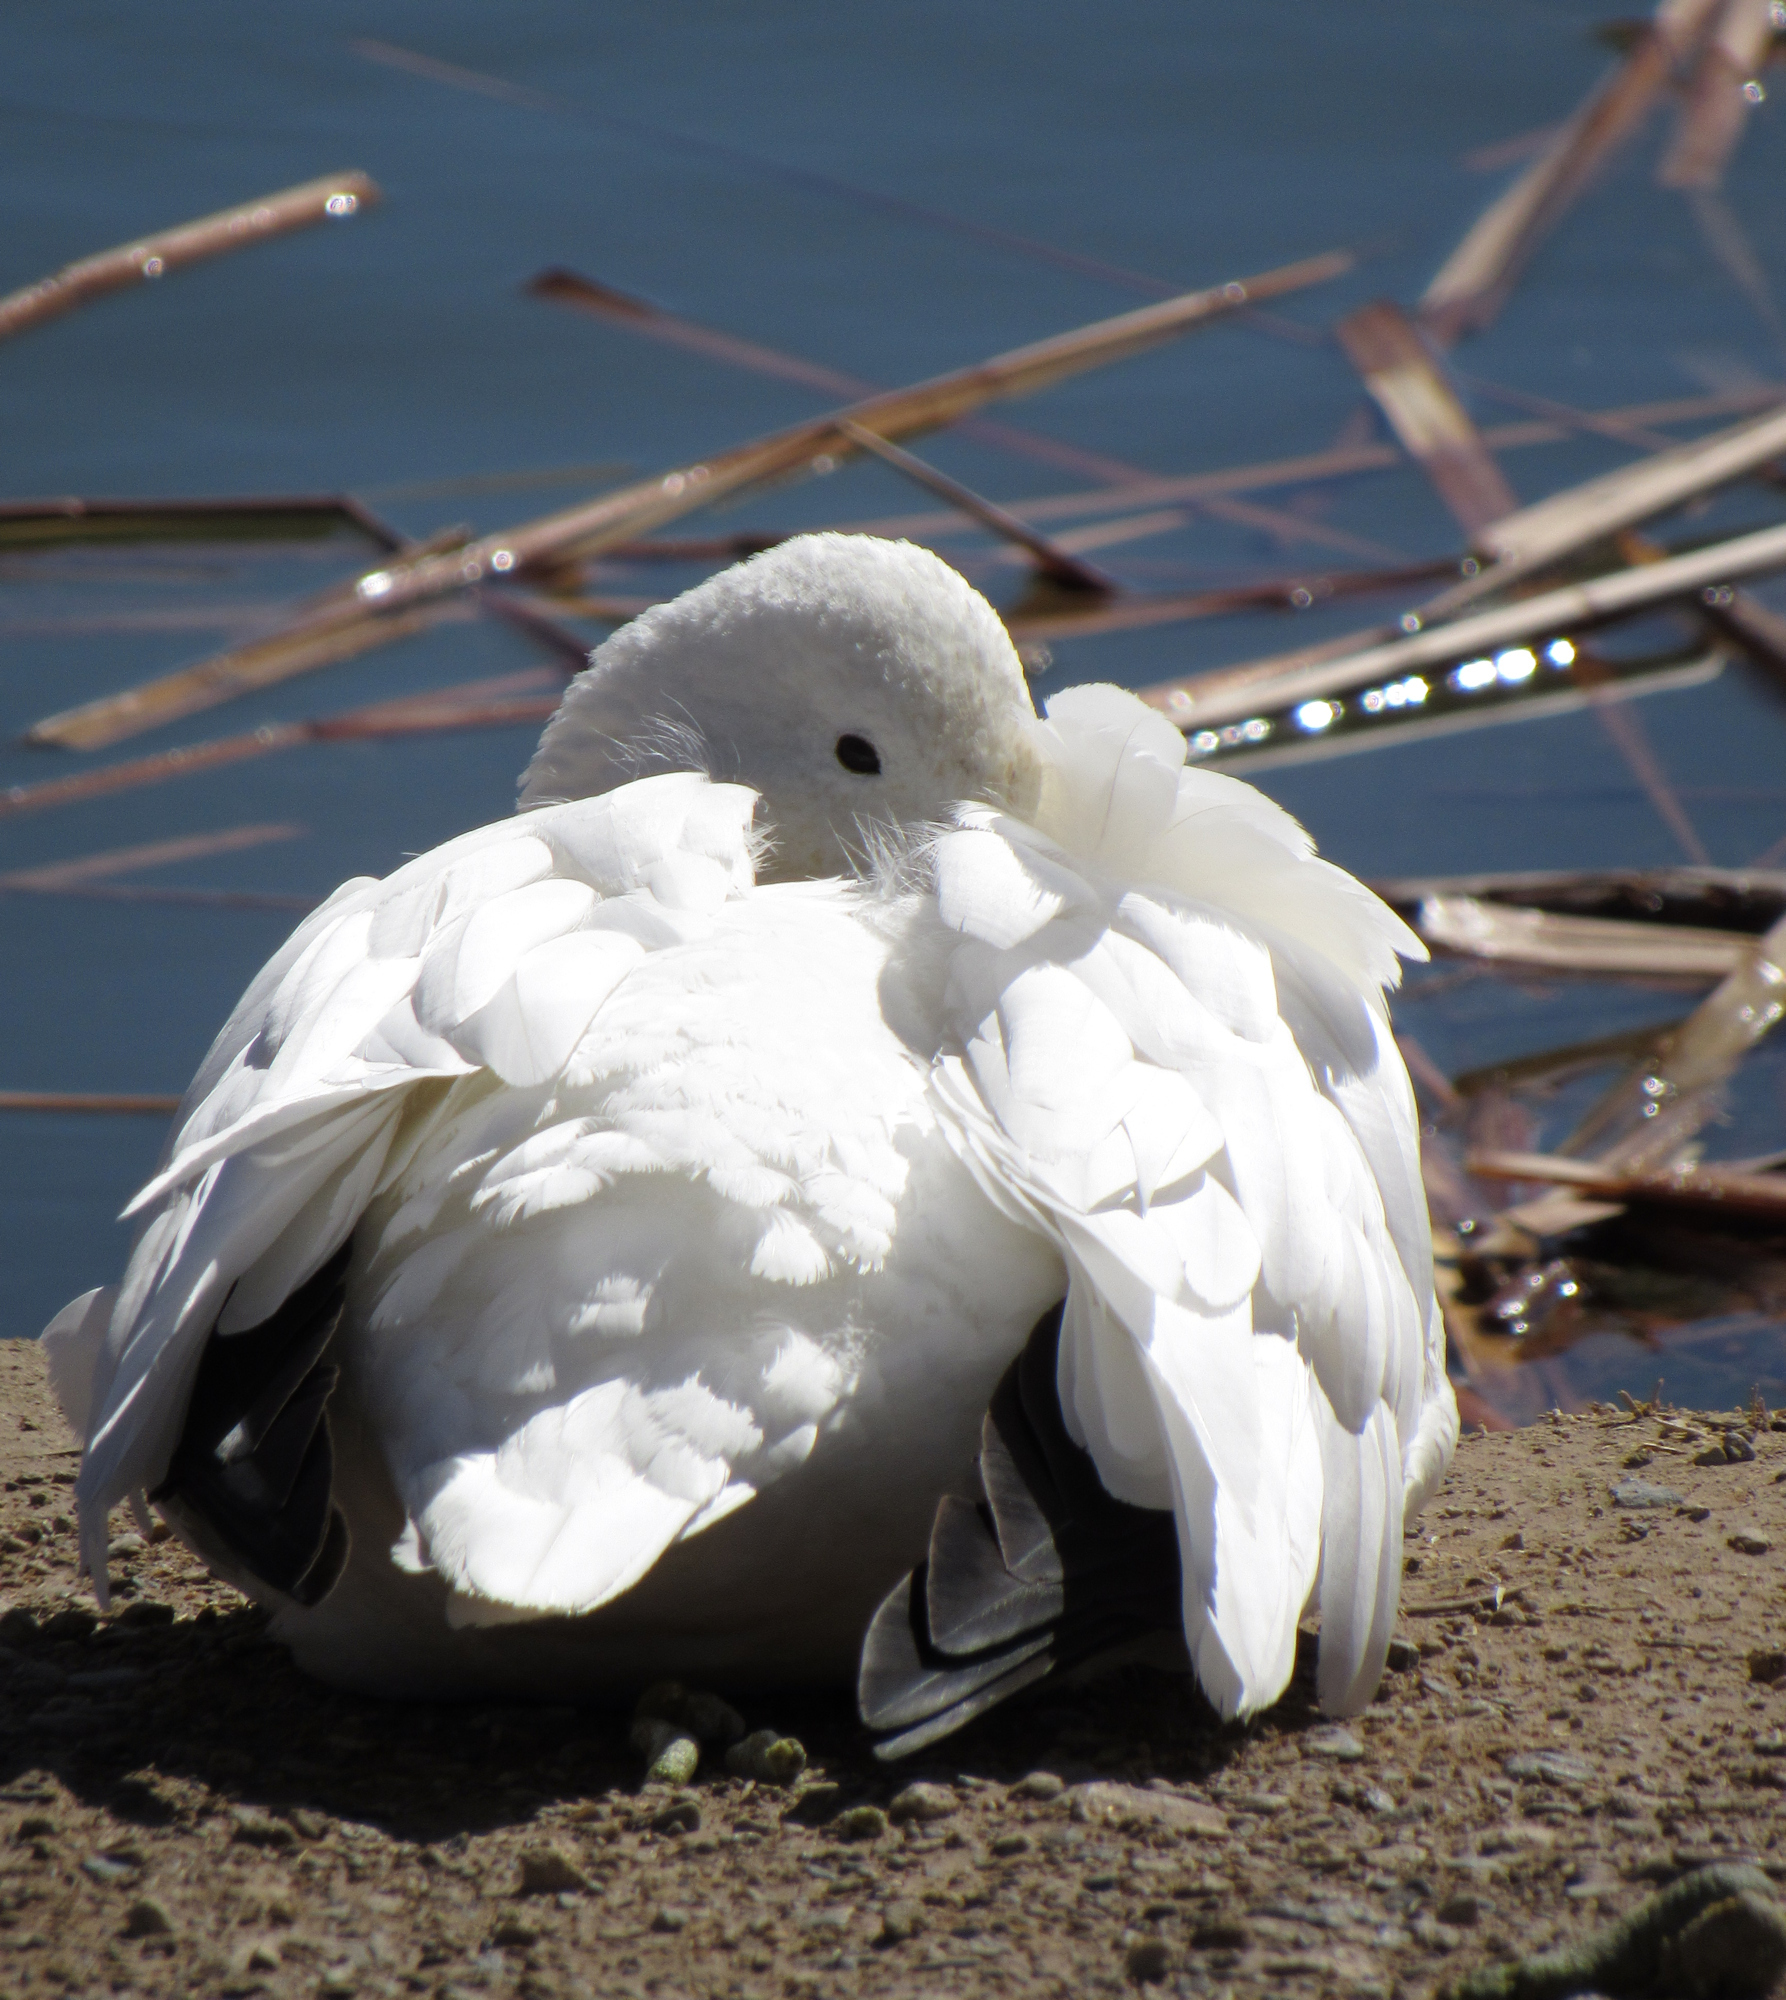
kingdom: Animalia
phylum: Chordata
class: Aves
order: Anseriformes
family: Anatidae
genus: Anser
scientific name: Anser rossii
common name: Ross's goose
